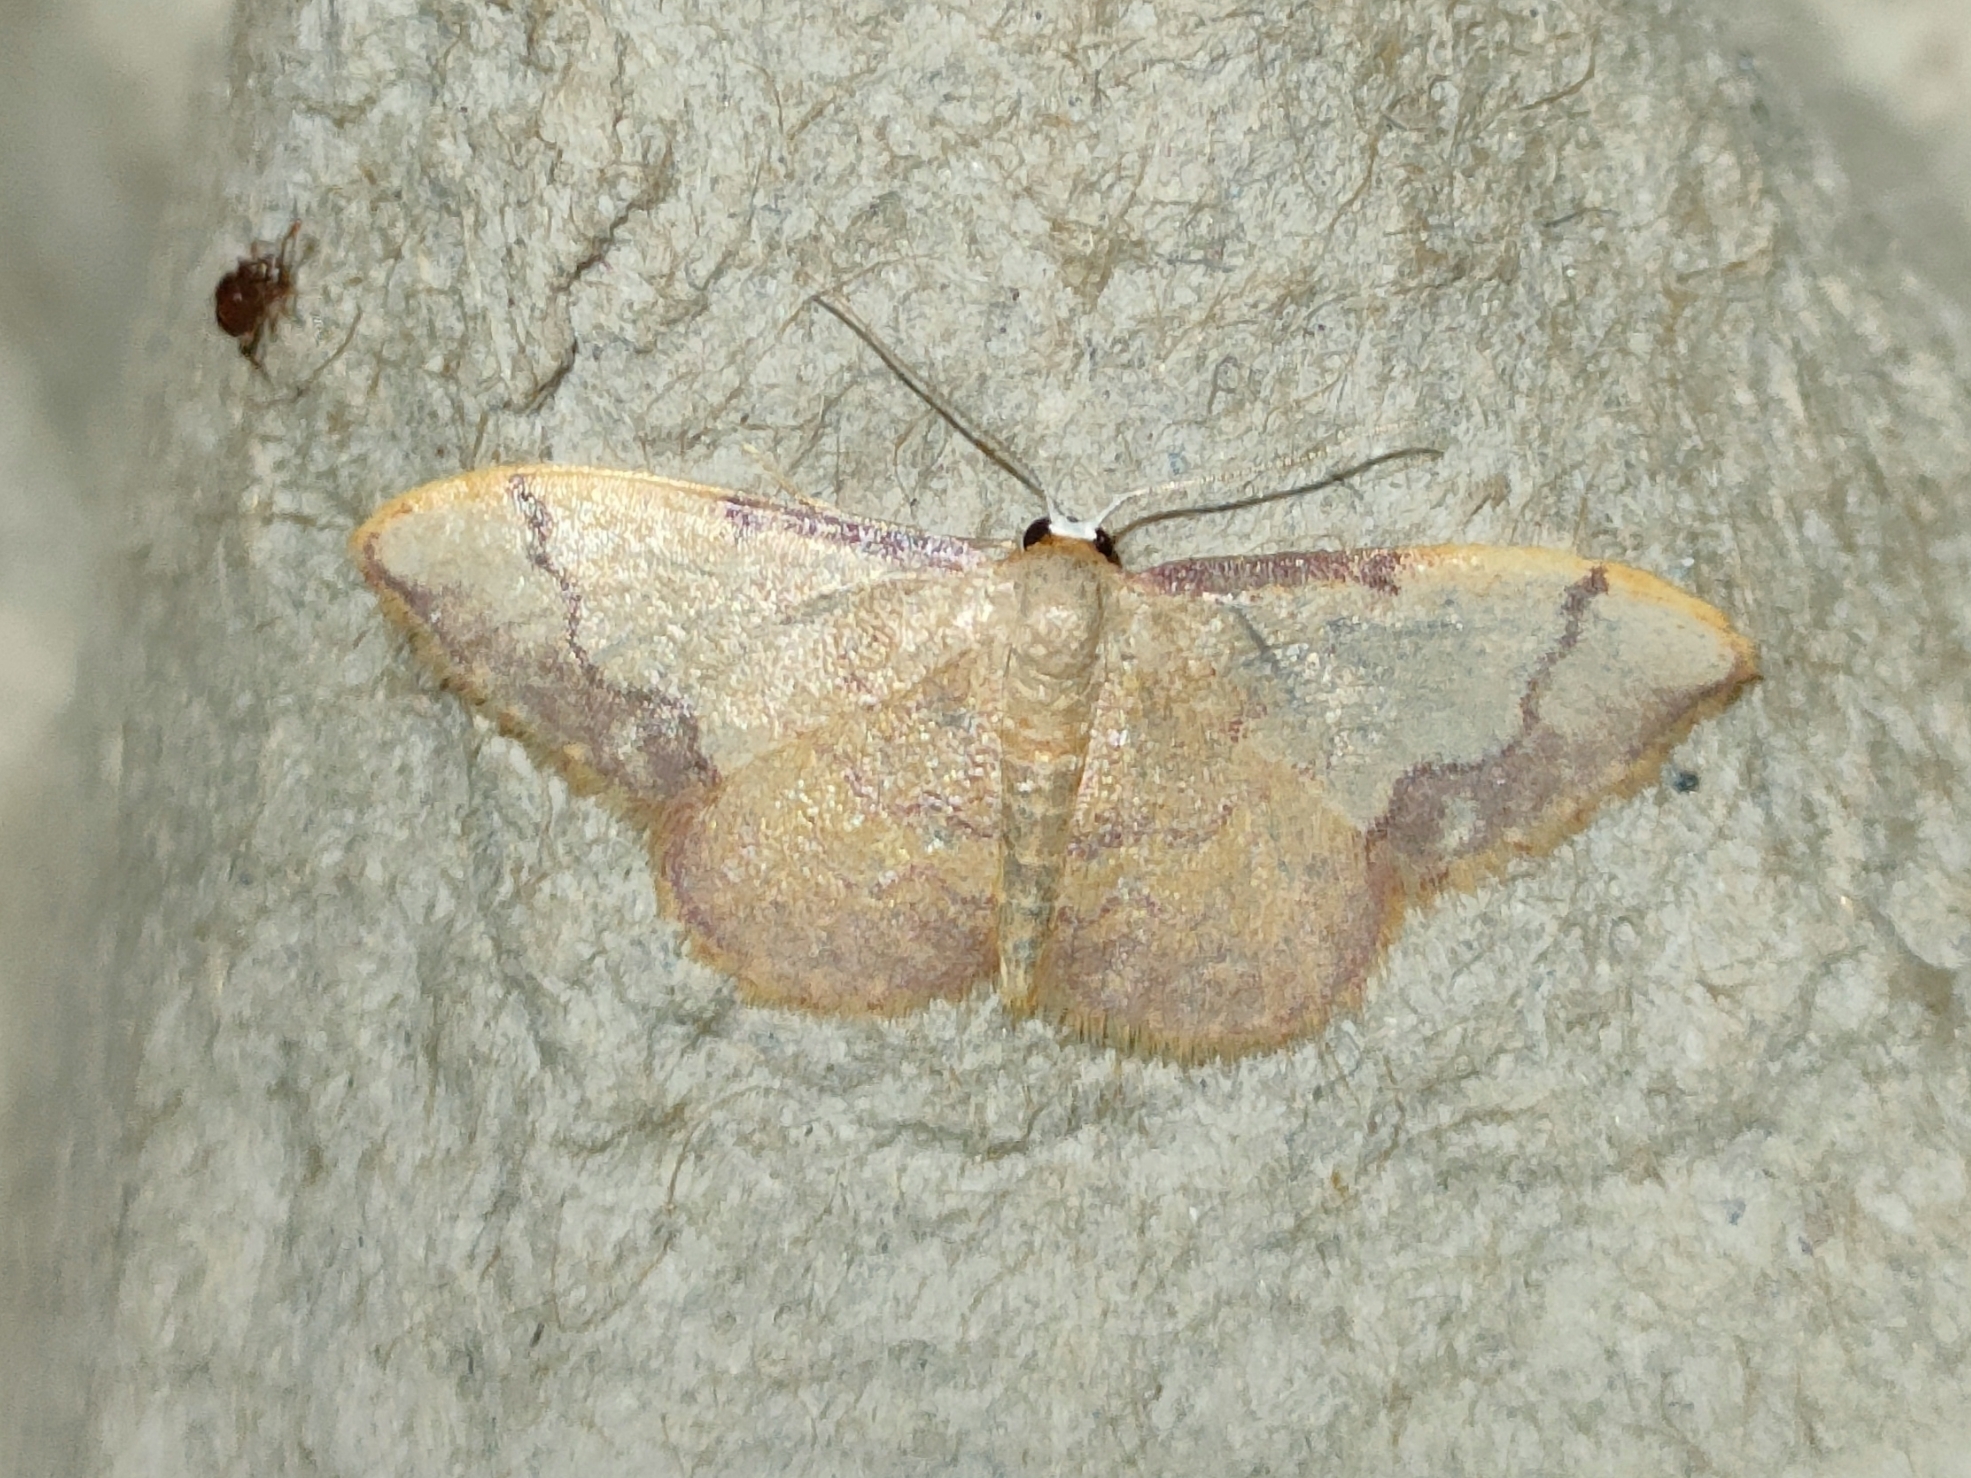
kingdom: Animalia
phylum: Arthropoda
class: Insecta
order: Lepidoptera
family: Geometridae
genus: Idaea
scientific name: Idaea ostrinaria
